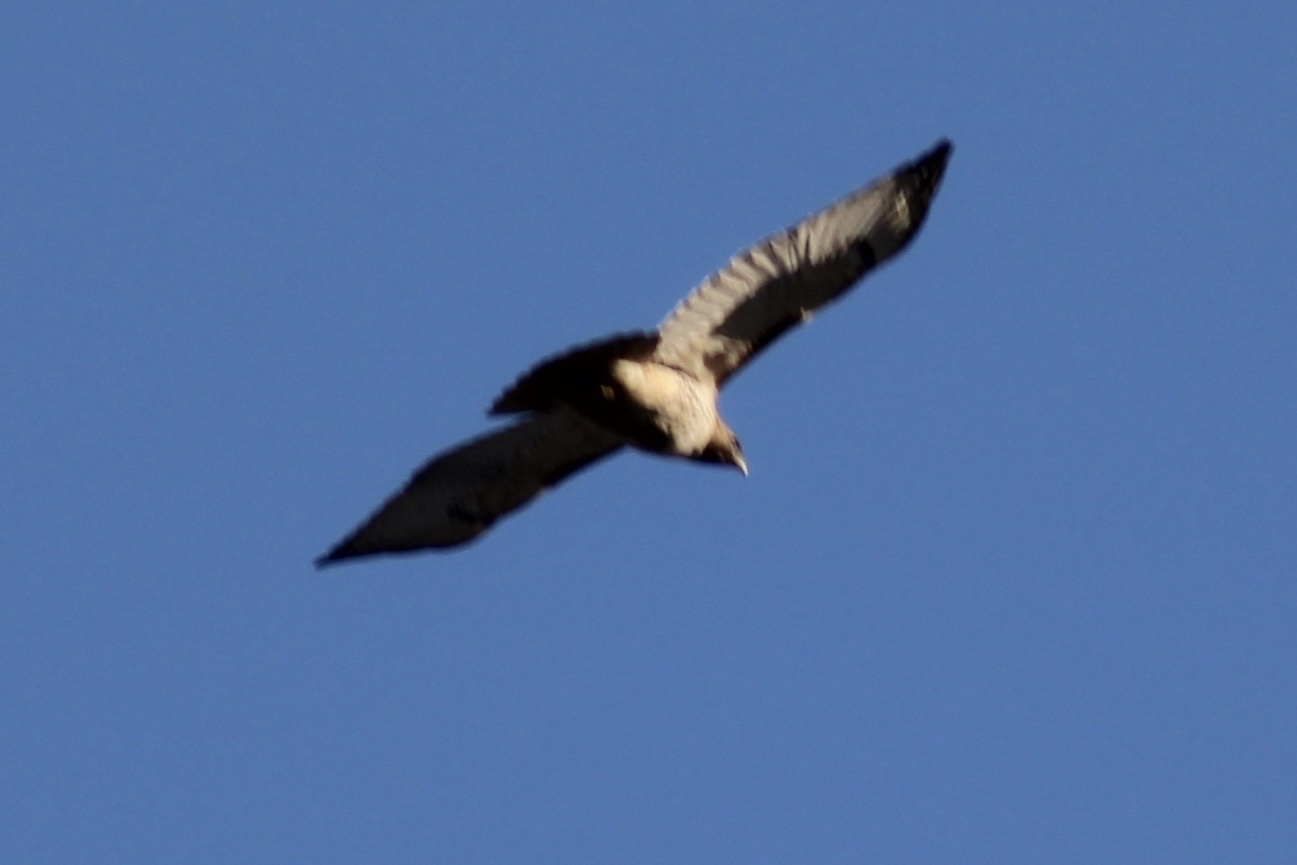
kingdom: Animalia
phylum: Chordata
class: Aves
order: Accipitriformes
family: Accipitridae
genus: Buteo
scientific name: Buteo jamaicensis
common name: Red-tailed hawk
